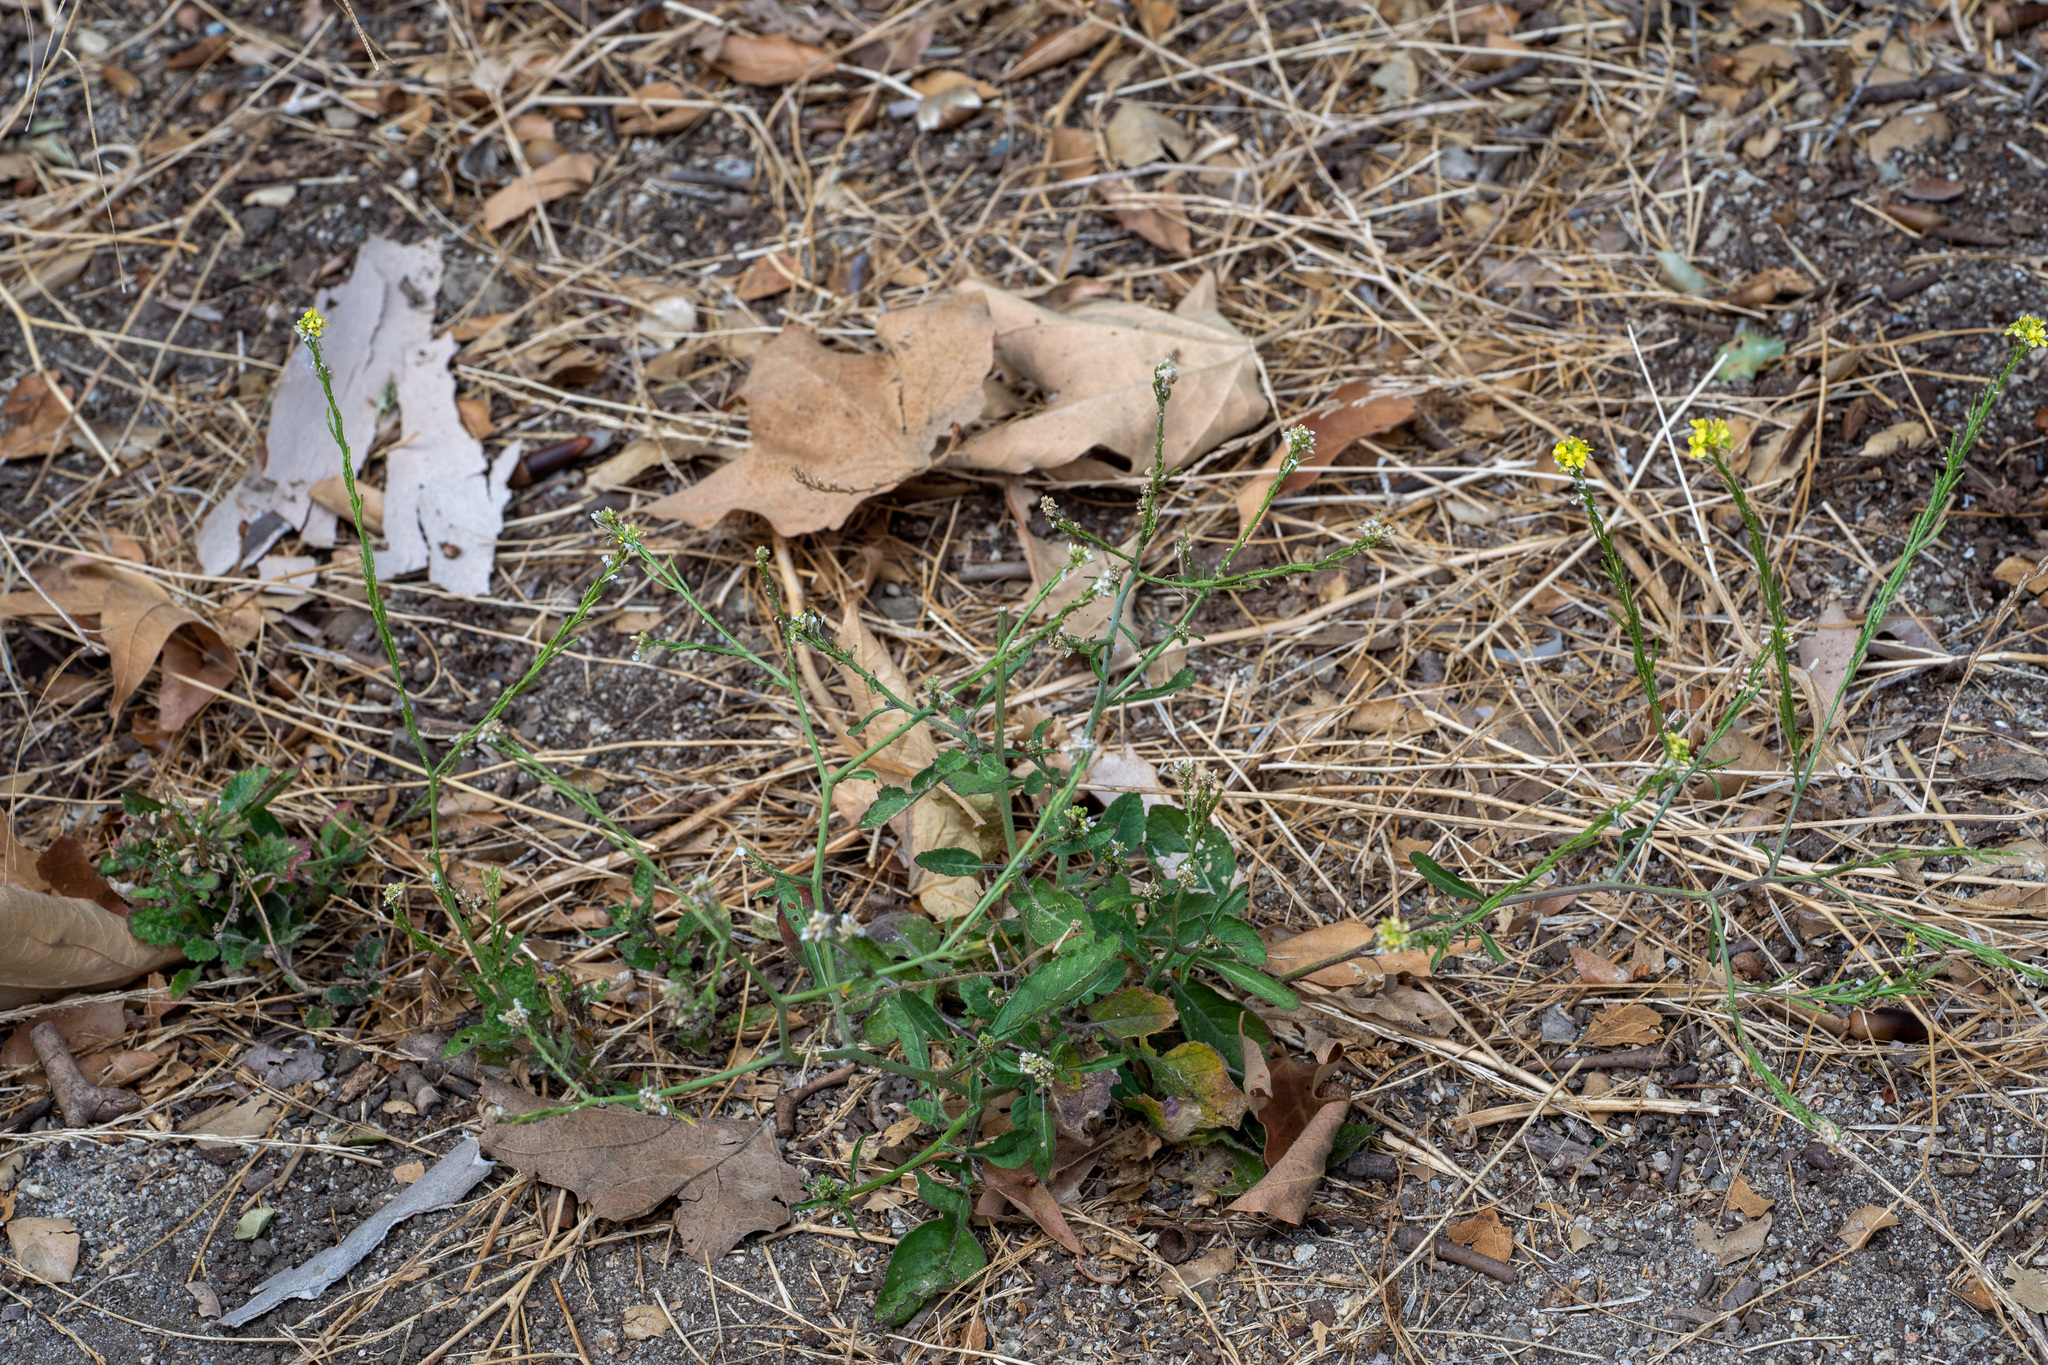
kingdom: Plantae
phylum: Tracheophyta
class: Magnoliopsida
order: Brassicales
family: Brassicaceae
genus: Hirschfeldia
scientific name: Hirschfeldia incana
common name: Hoary mustard
